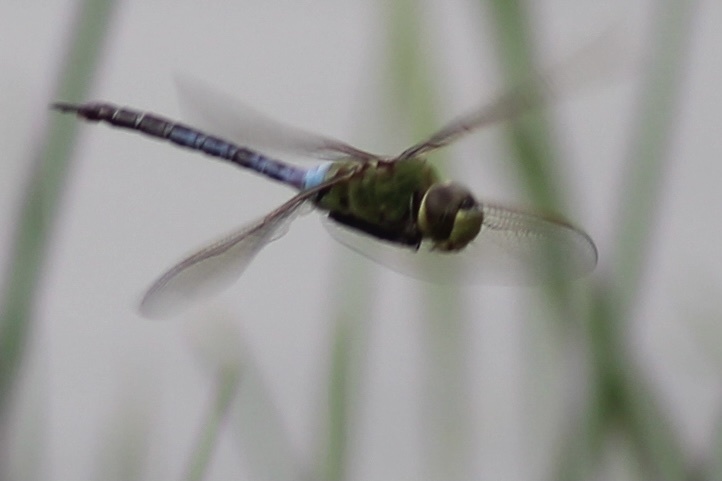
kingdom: Animalia
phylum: Arthropoda
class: Insecta
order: Odonata
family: Aeshnidae
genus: Anax
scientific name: Anax junius
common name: Common green darner
